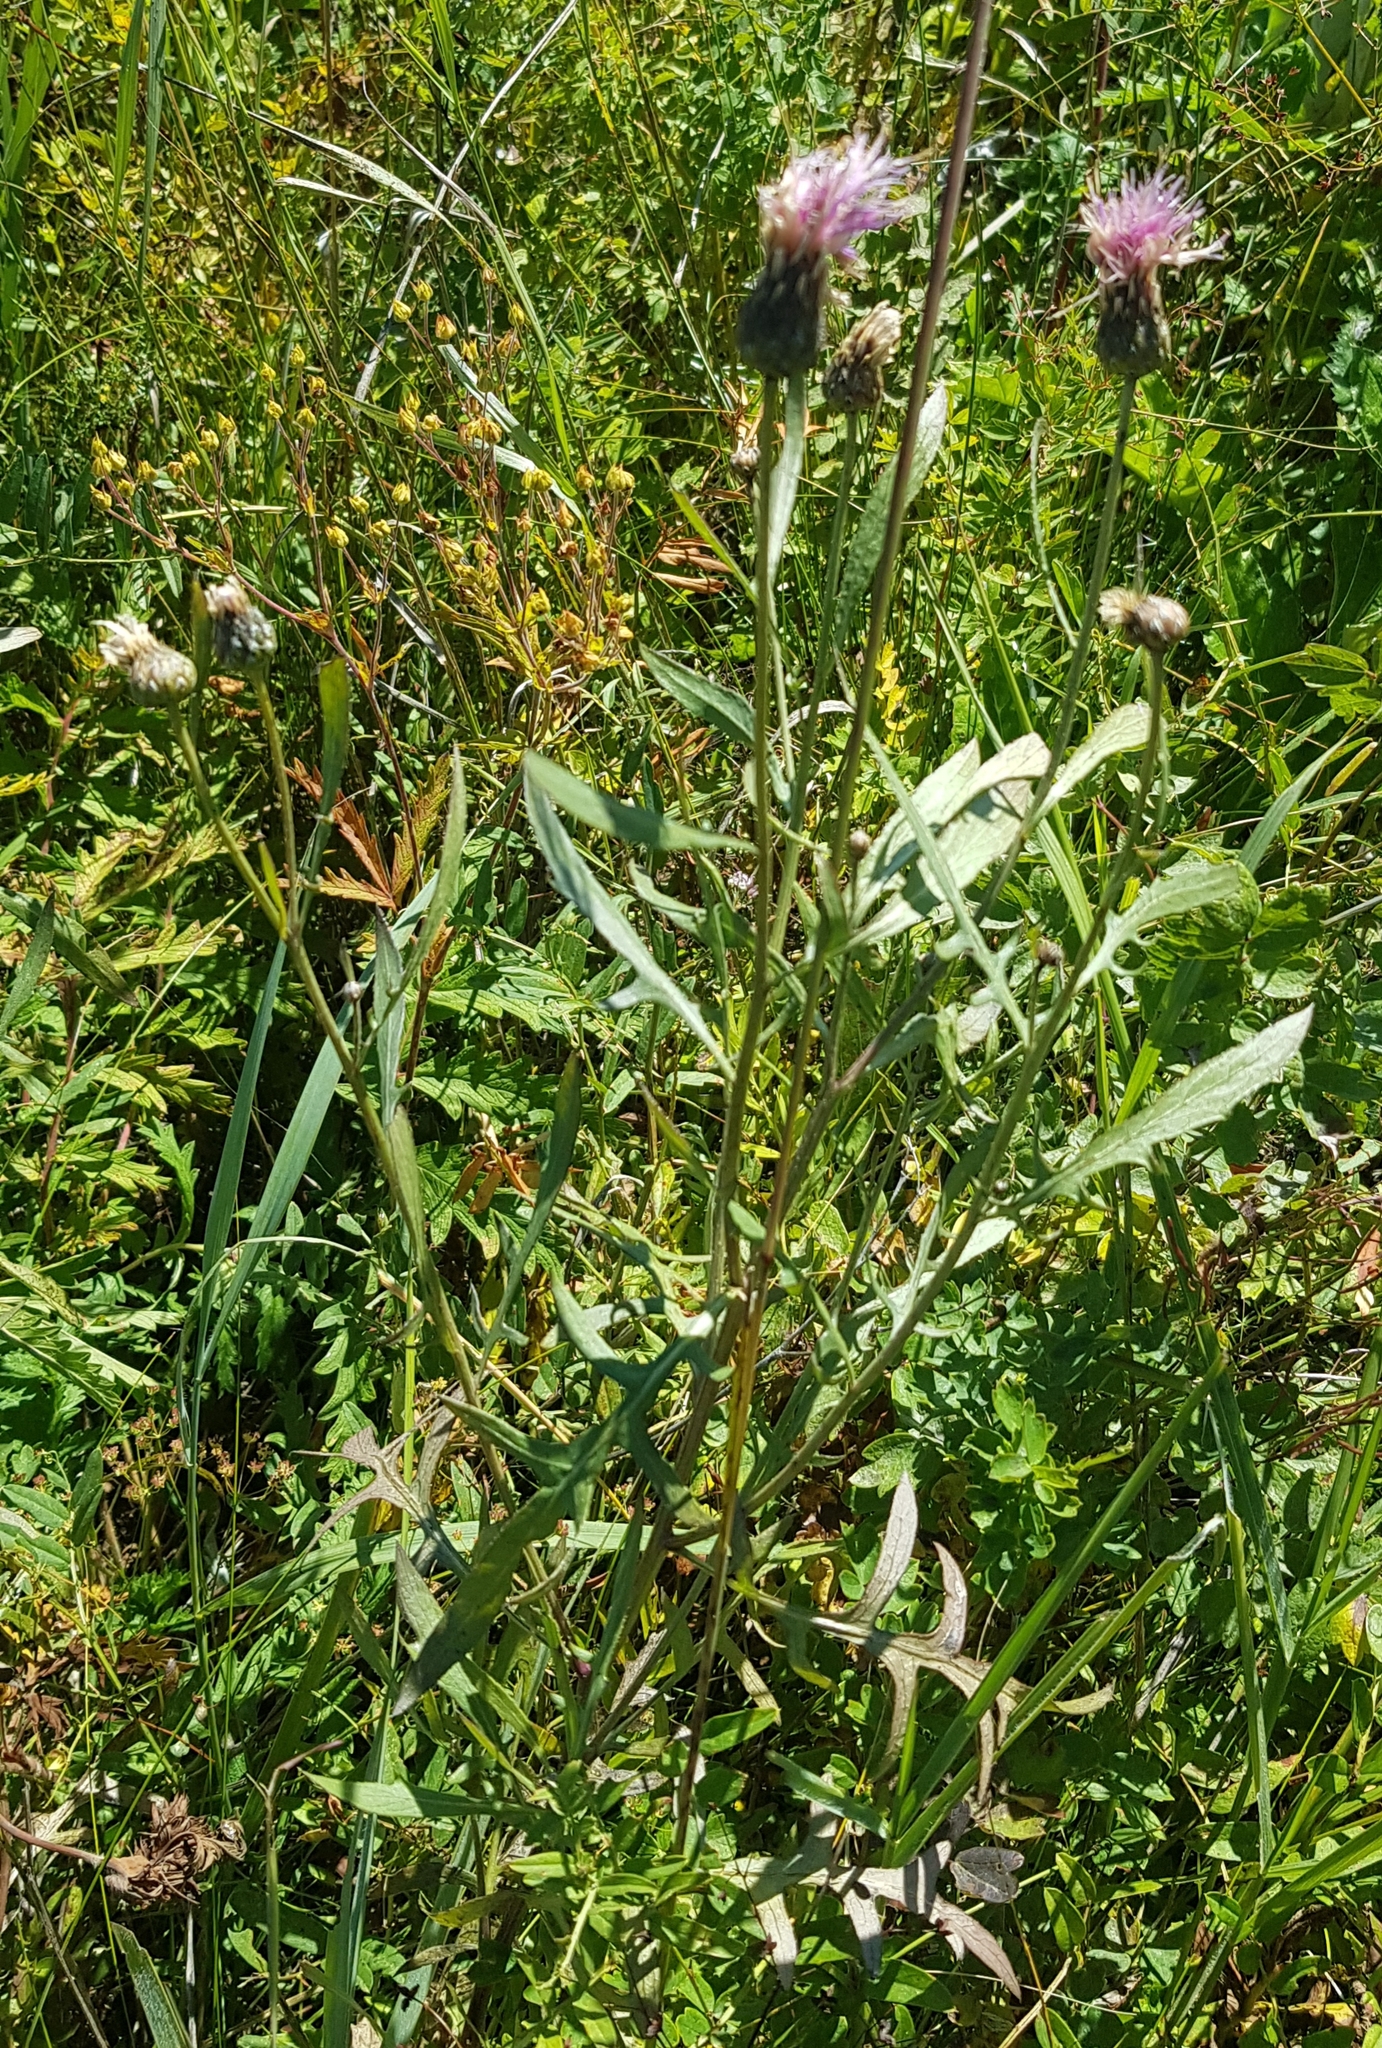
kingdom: Plantae
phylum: Tracheophyta
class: Magnoliopsida
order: Asterales
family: Asteraceae
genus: Klasea
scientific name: Klasea centauroides
